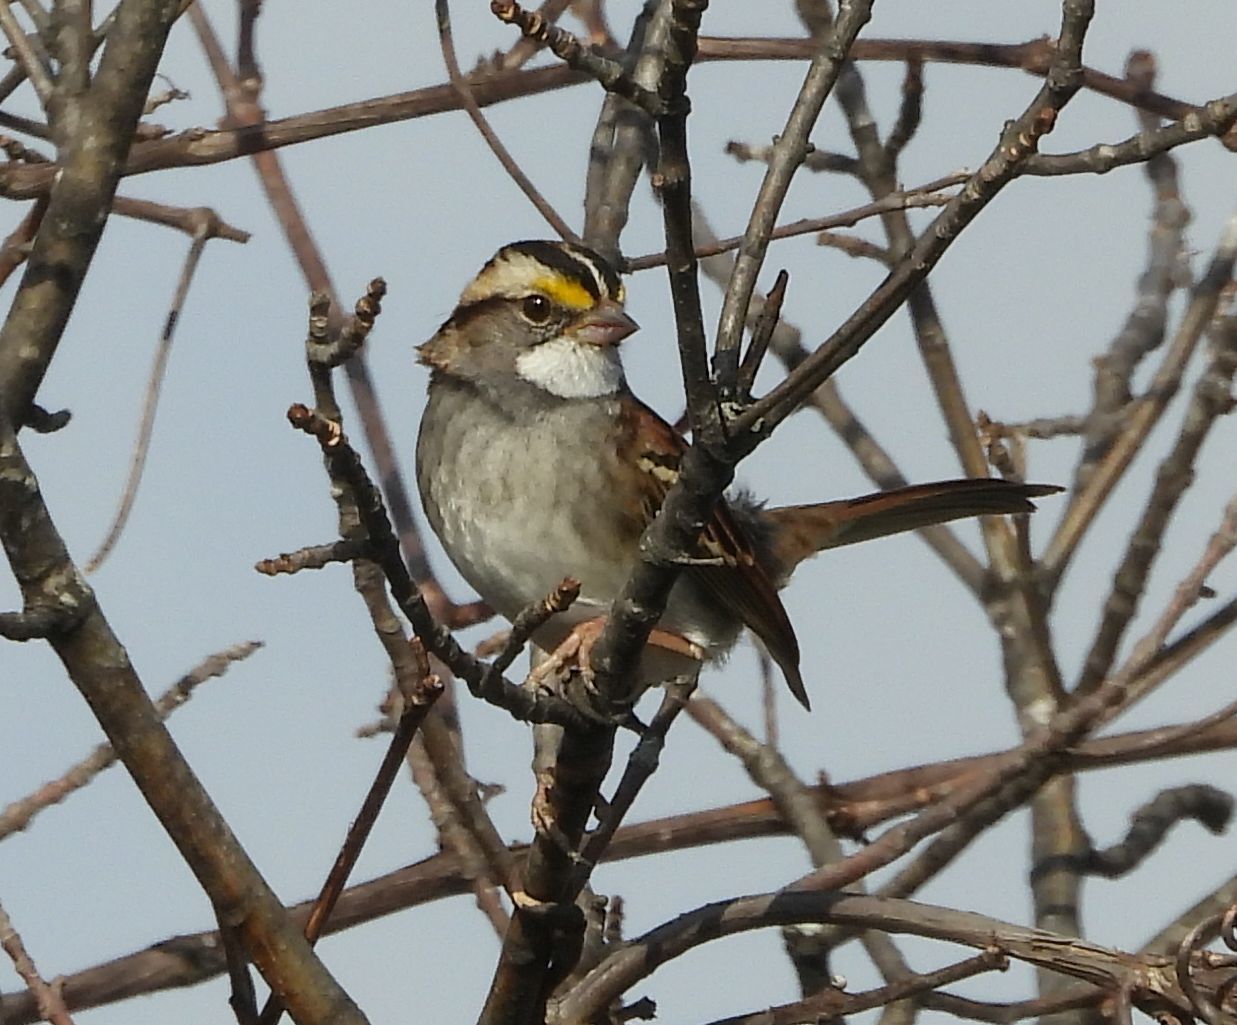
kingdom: Animalia
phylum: Chordata
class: Aves
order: Passeriformes
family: Passerellidae
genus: Zonotrichia
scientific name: Zonotrichia albicollis
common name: White-throated sparrow
